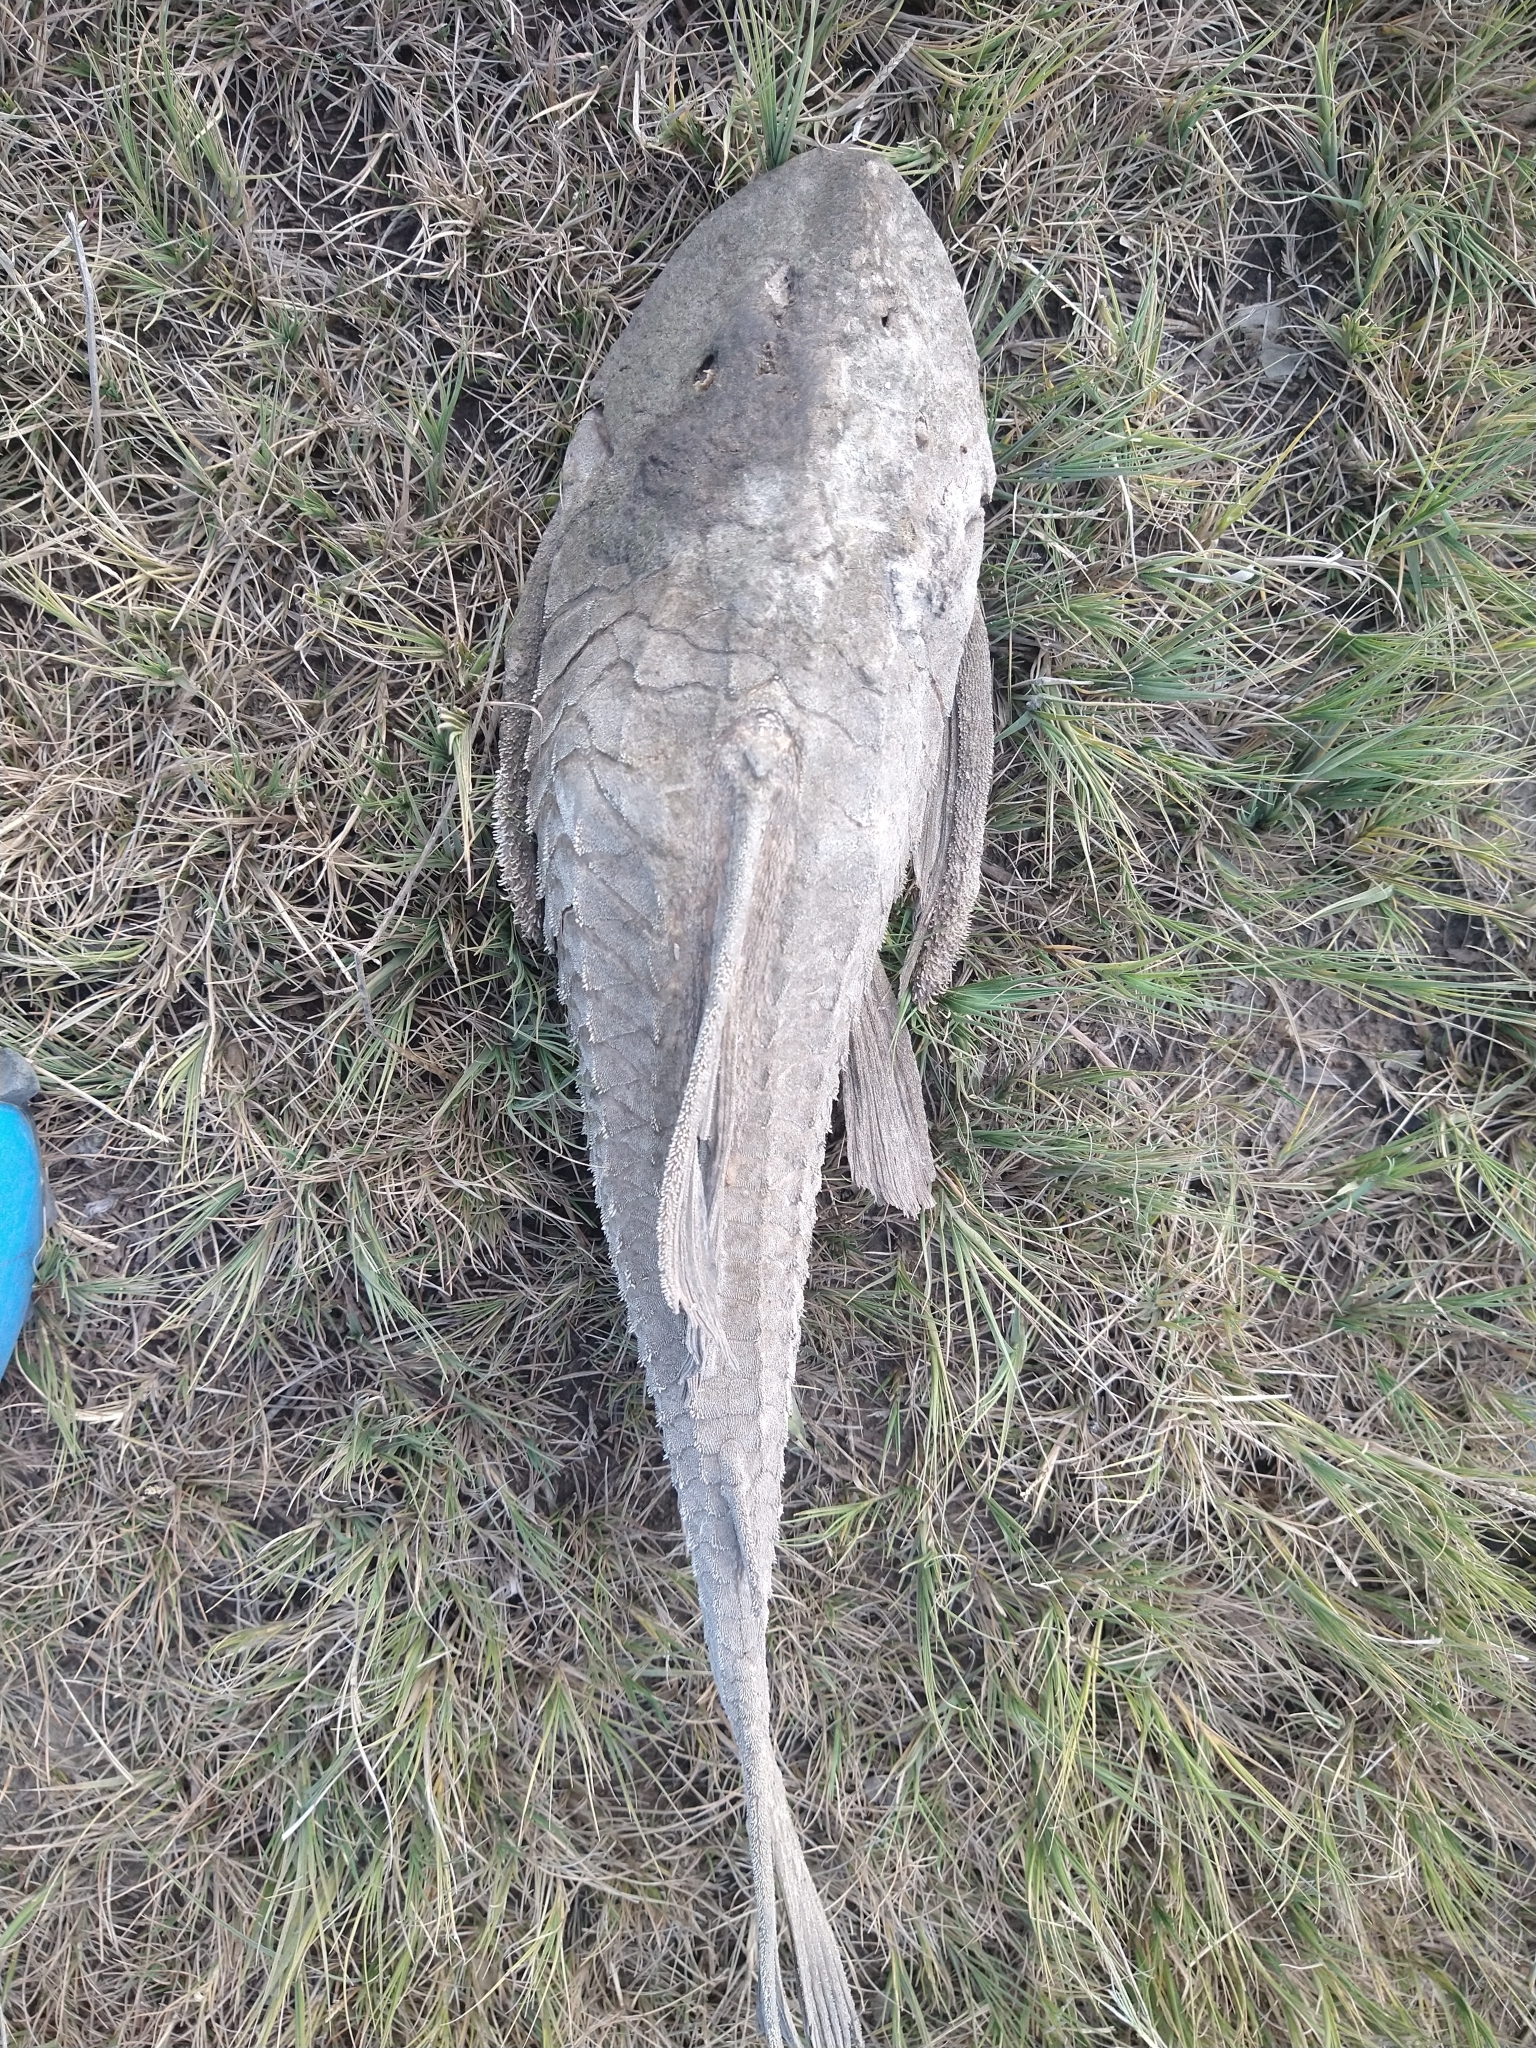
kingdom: Animalia
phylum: Chordata
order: Siluriformes
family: Loricariidae
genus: Hypostomus
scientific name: Hypostomus commersoni
